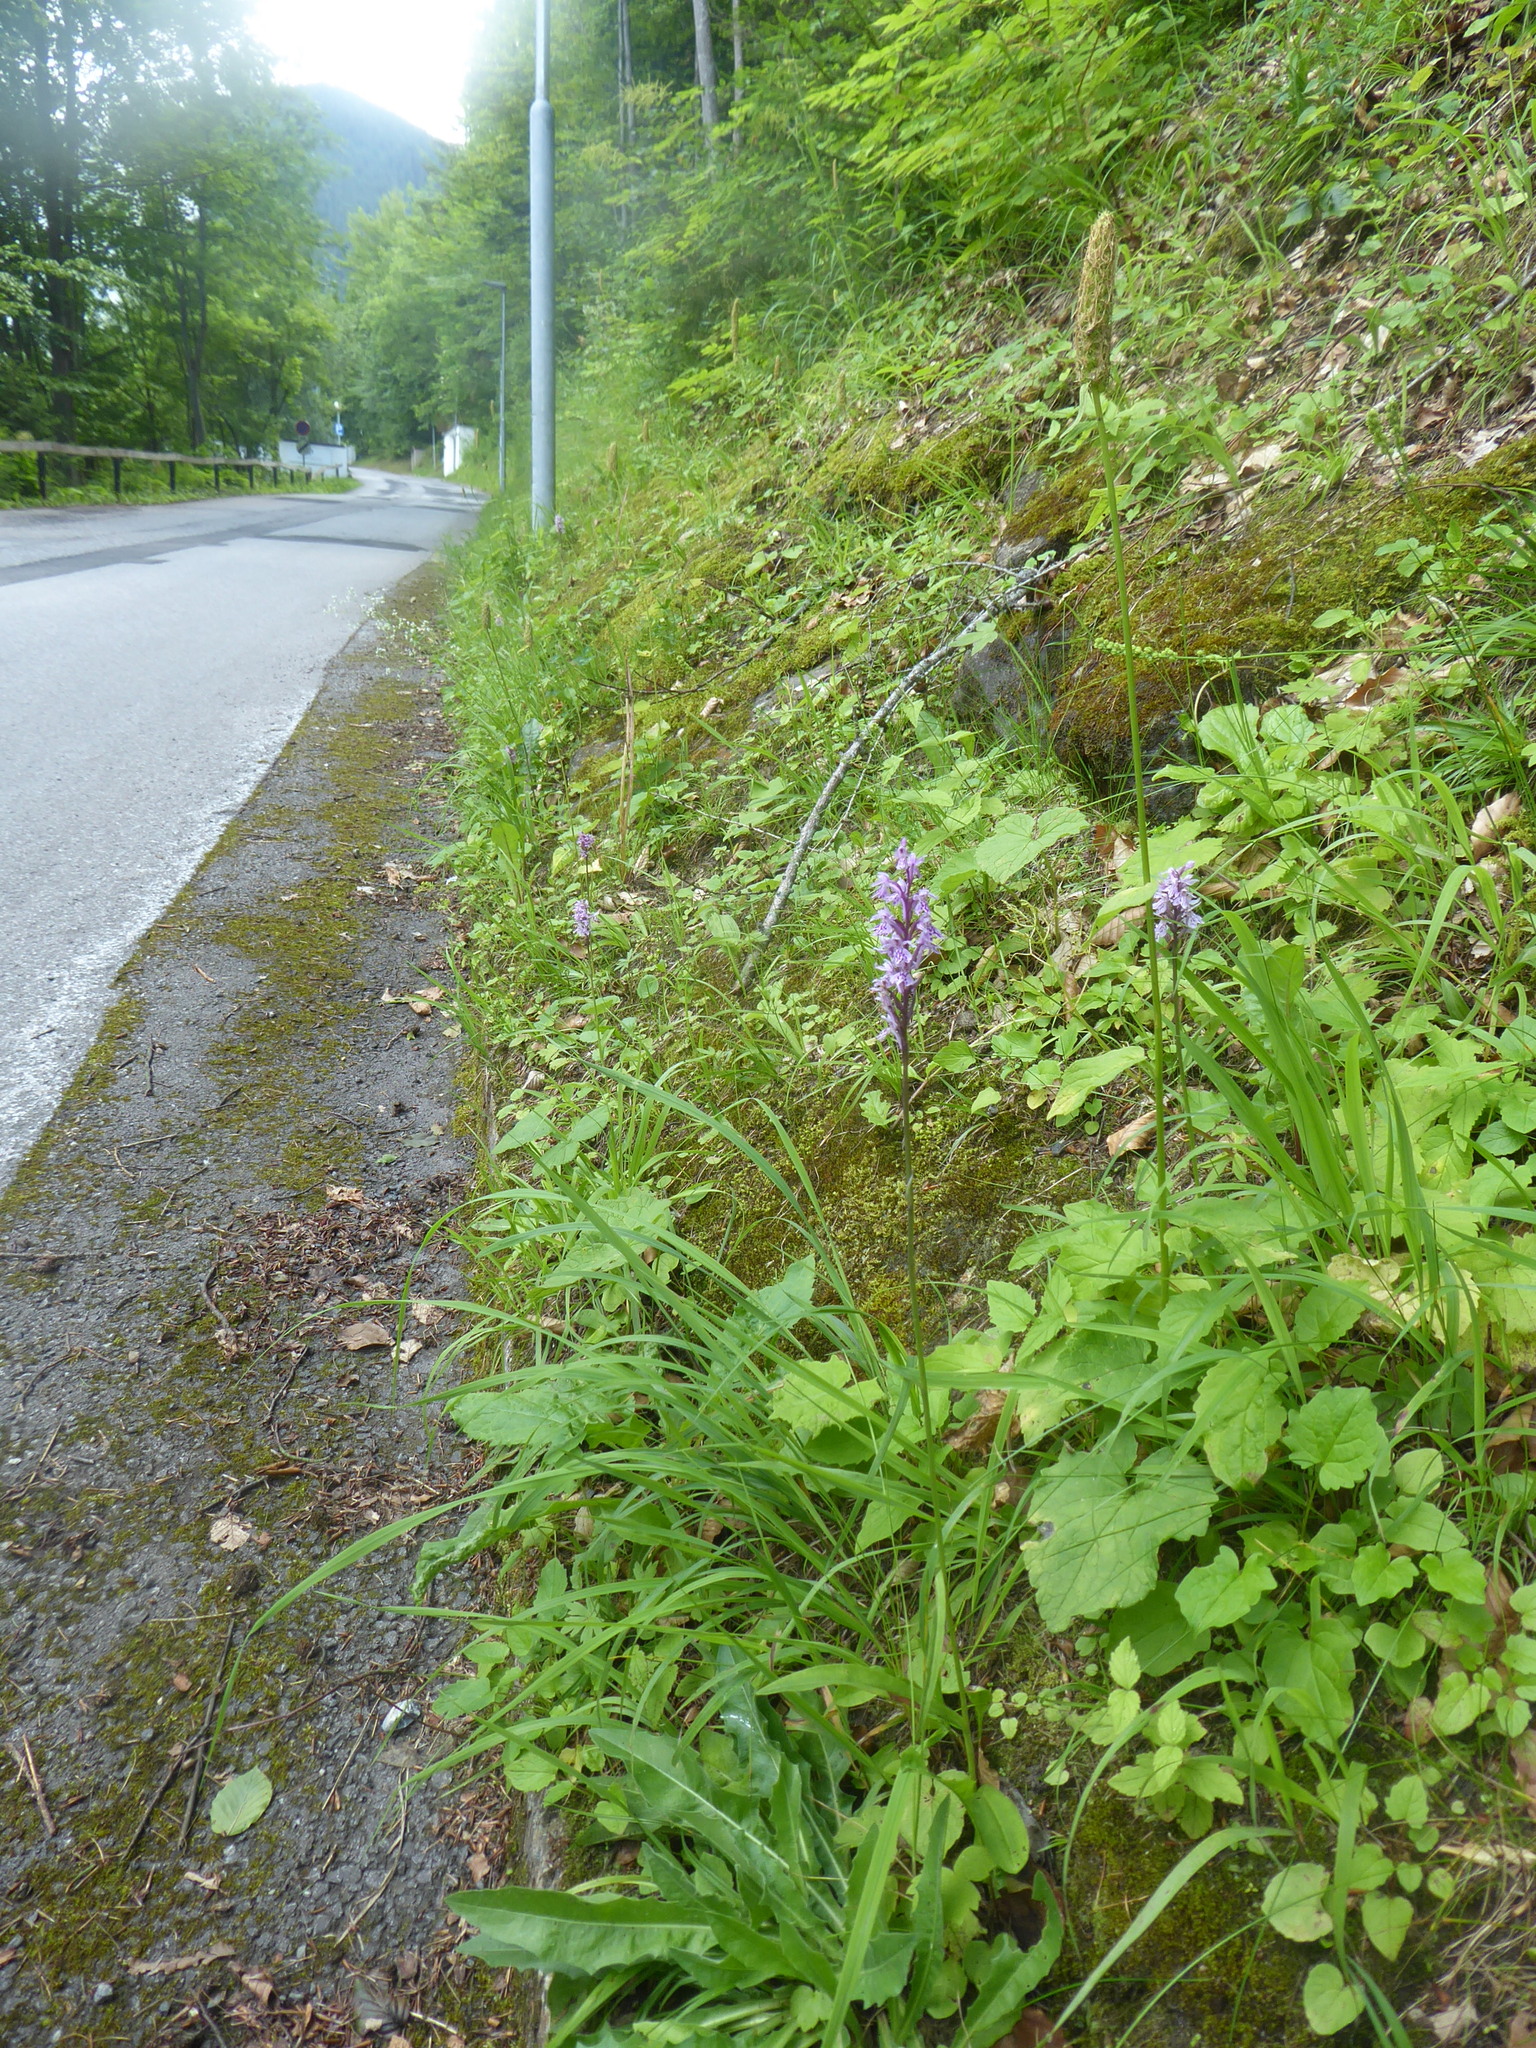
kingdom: Plantae
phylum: Tracheophyta
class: Liliopsida
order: Asparagales
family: Orchidaceae
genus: Dactylorhiza
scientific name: Dactylorhiza maculata
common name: Heath spotted-orchid
